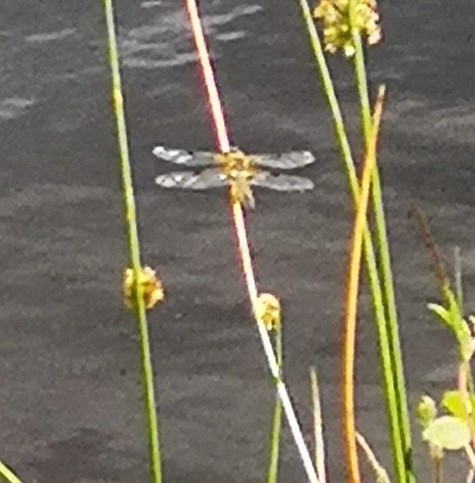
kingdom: Animalia
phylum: Arthropoda
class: Insecta
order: Odonata
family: Libellulidae
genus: Libellula
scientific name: Libellula quadrimaculata
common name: Four-spotted chaser
